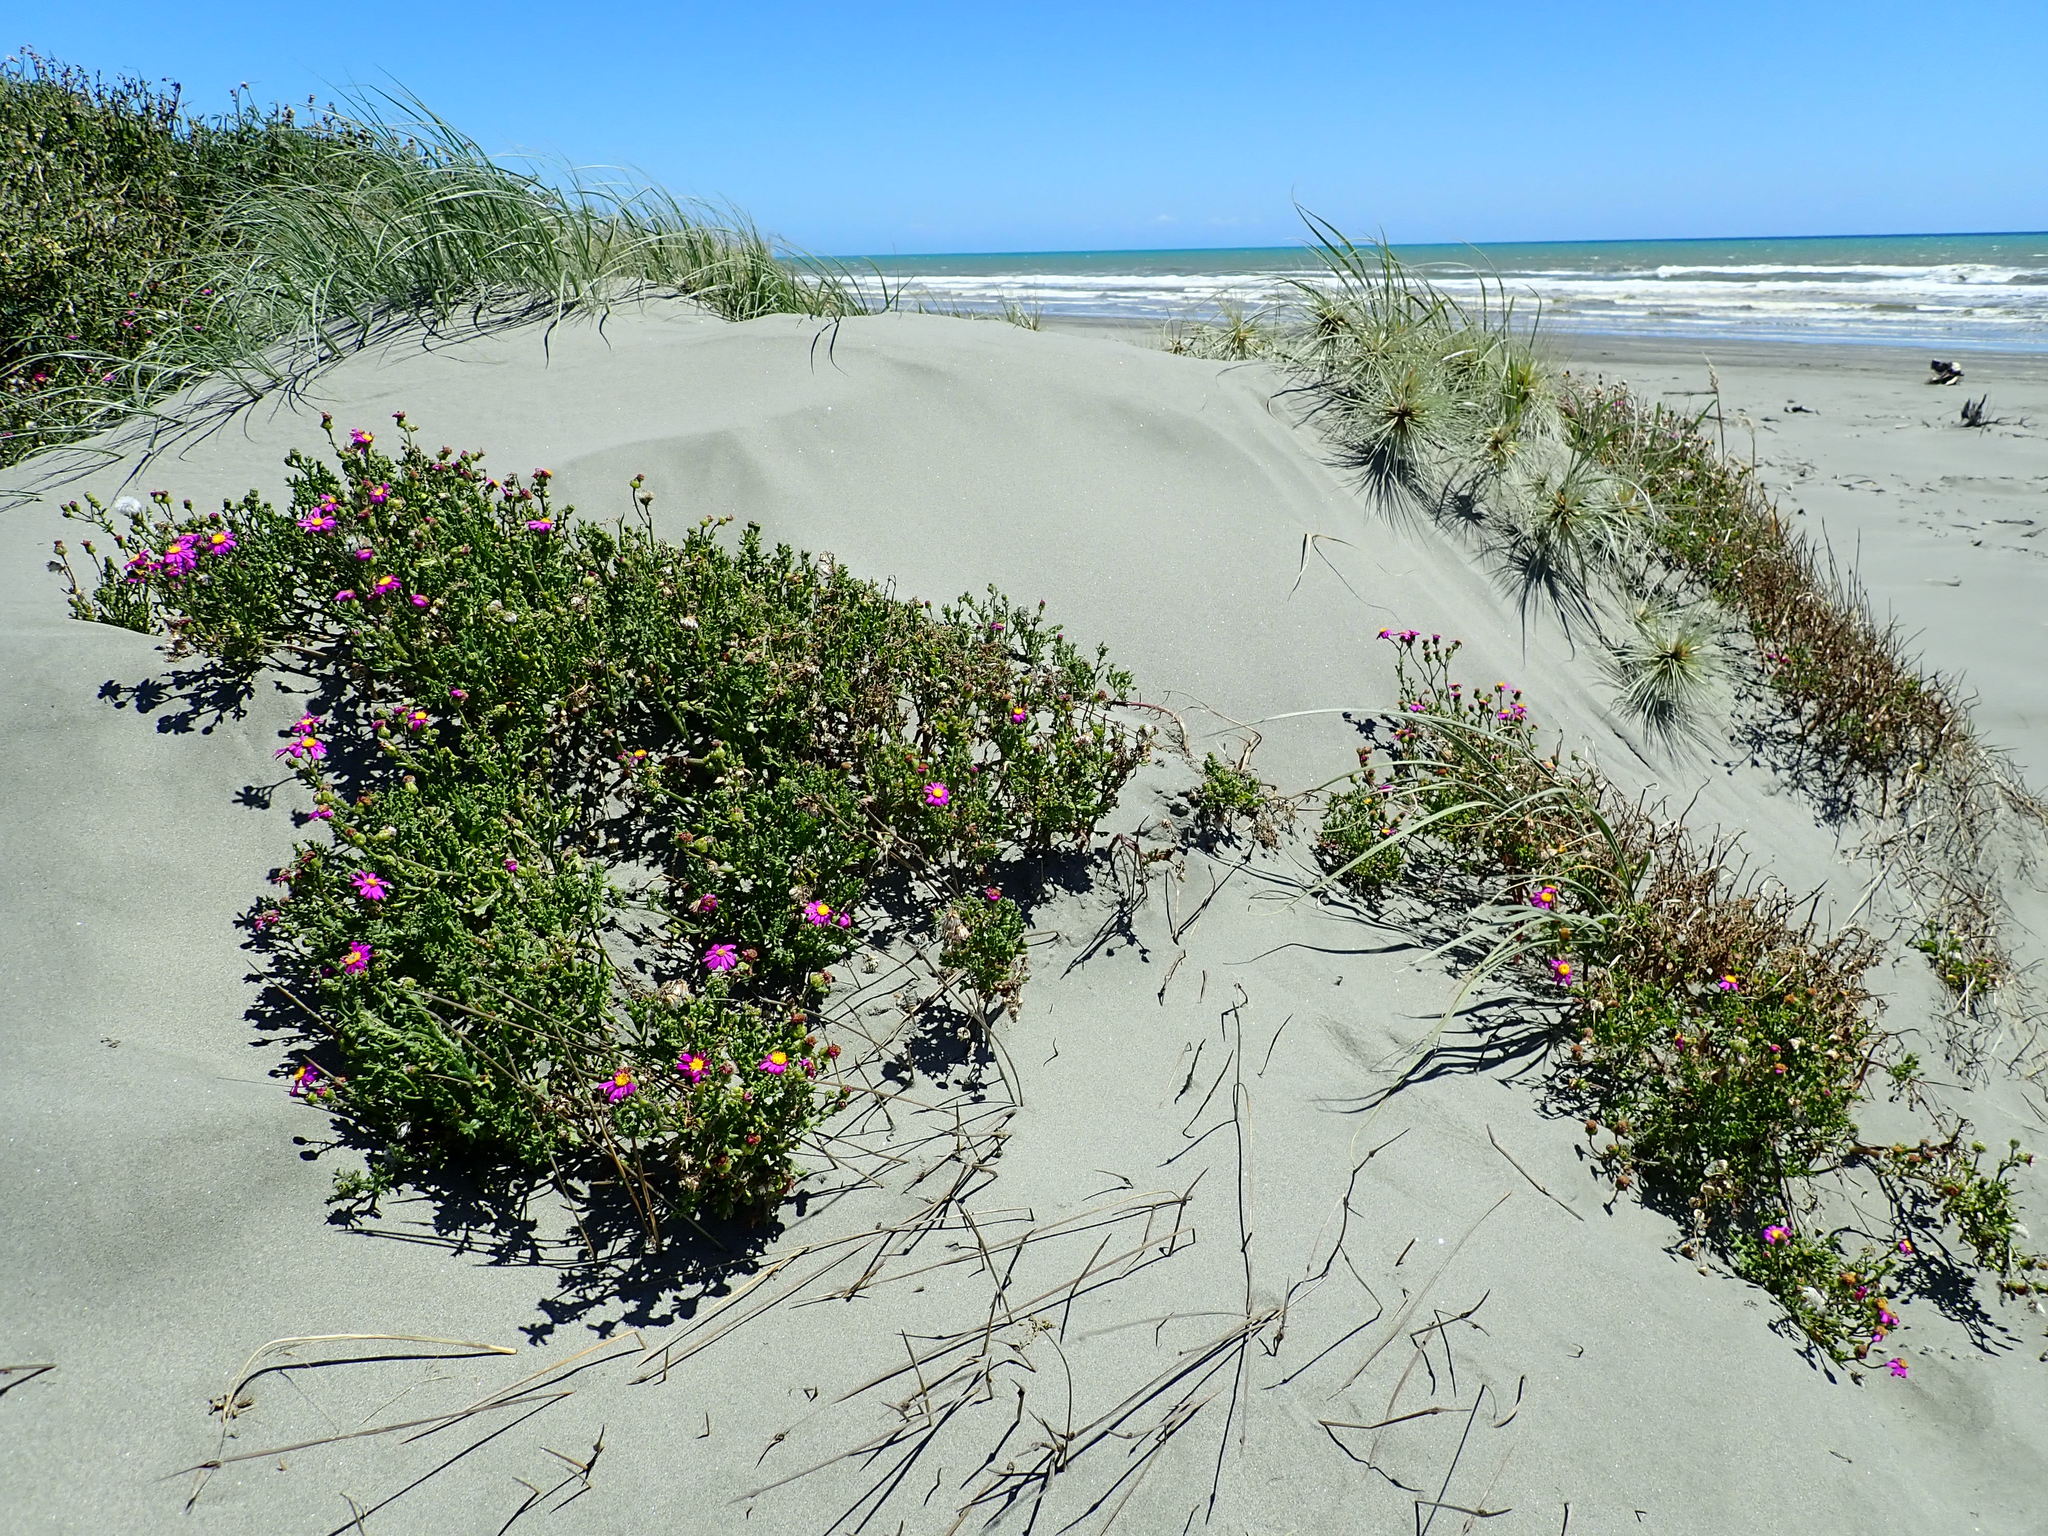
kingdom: Plantae
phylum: Tracheophyta
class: Magnoliopsida
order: Asterales
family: Asteraceae
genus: Senecio
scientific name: Senecio elegans
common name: Purple groundsel
